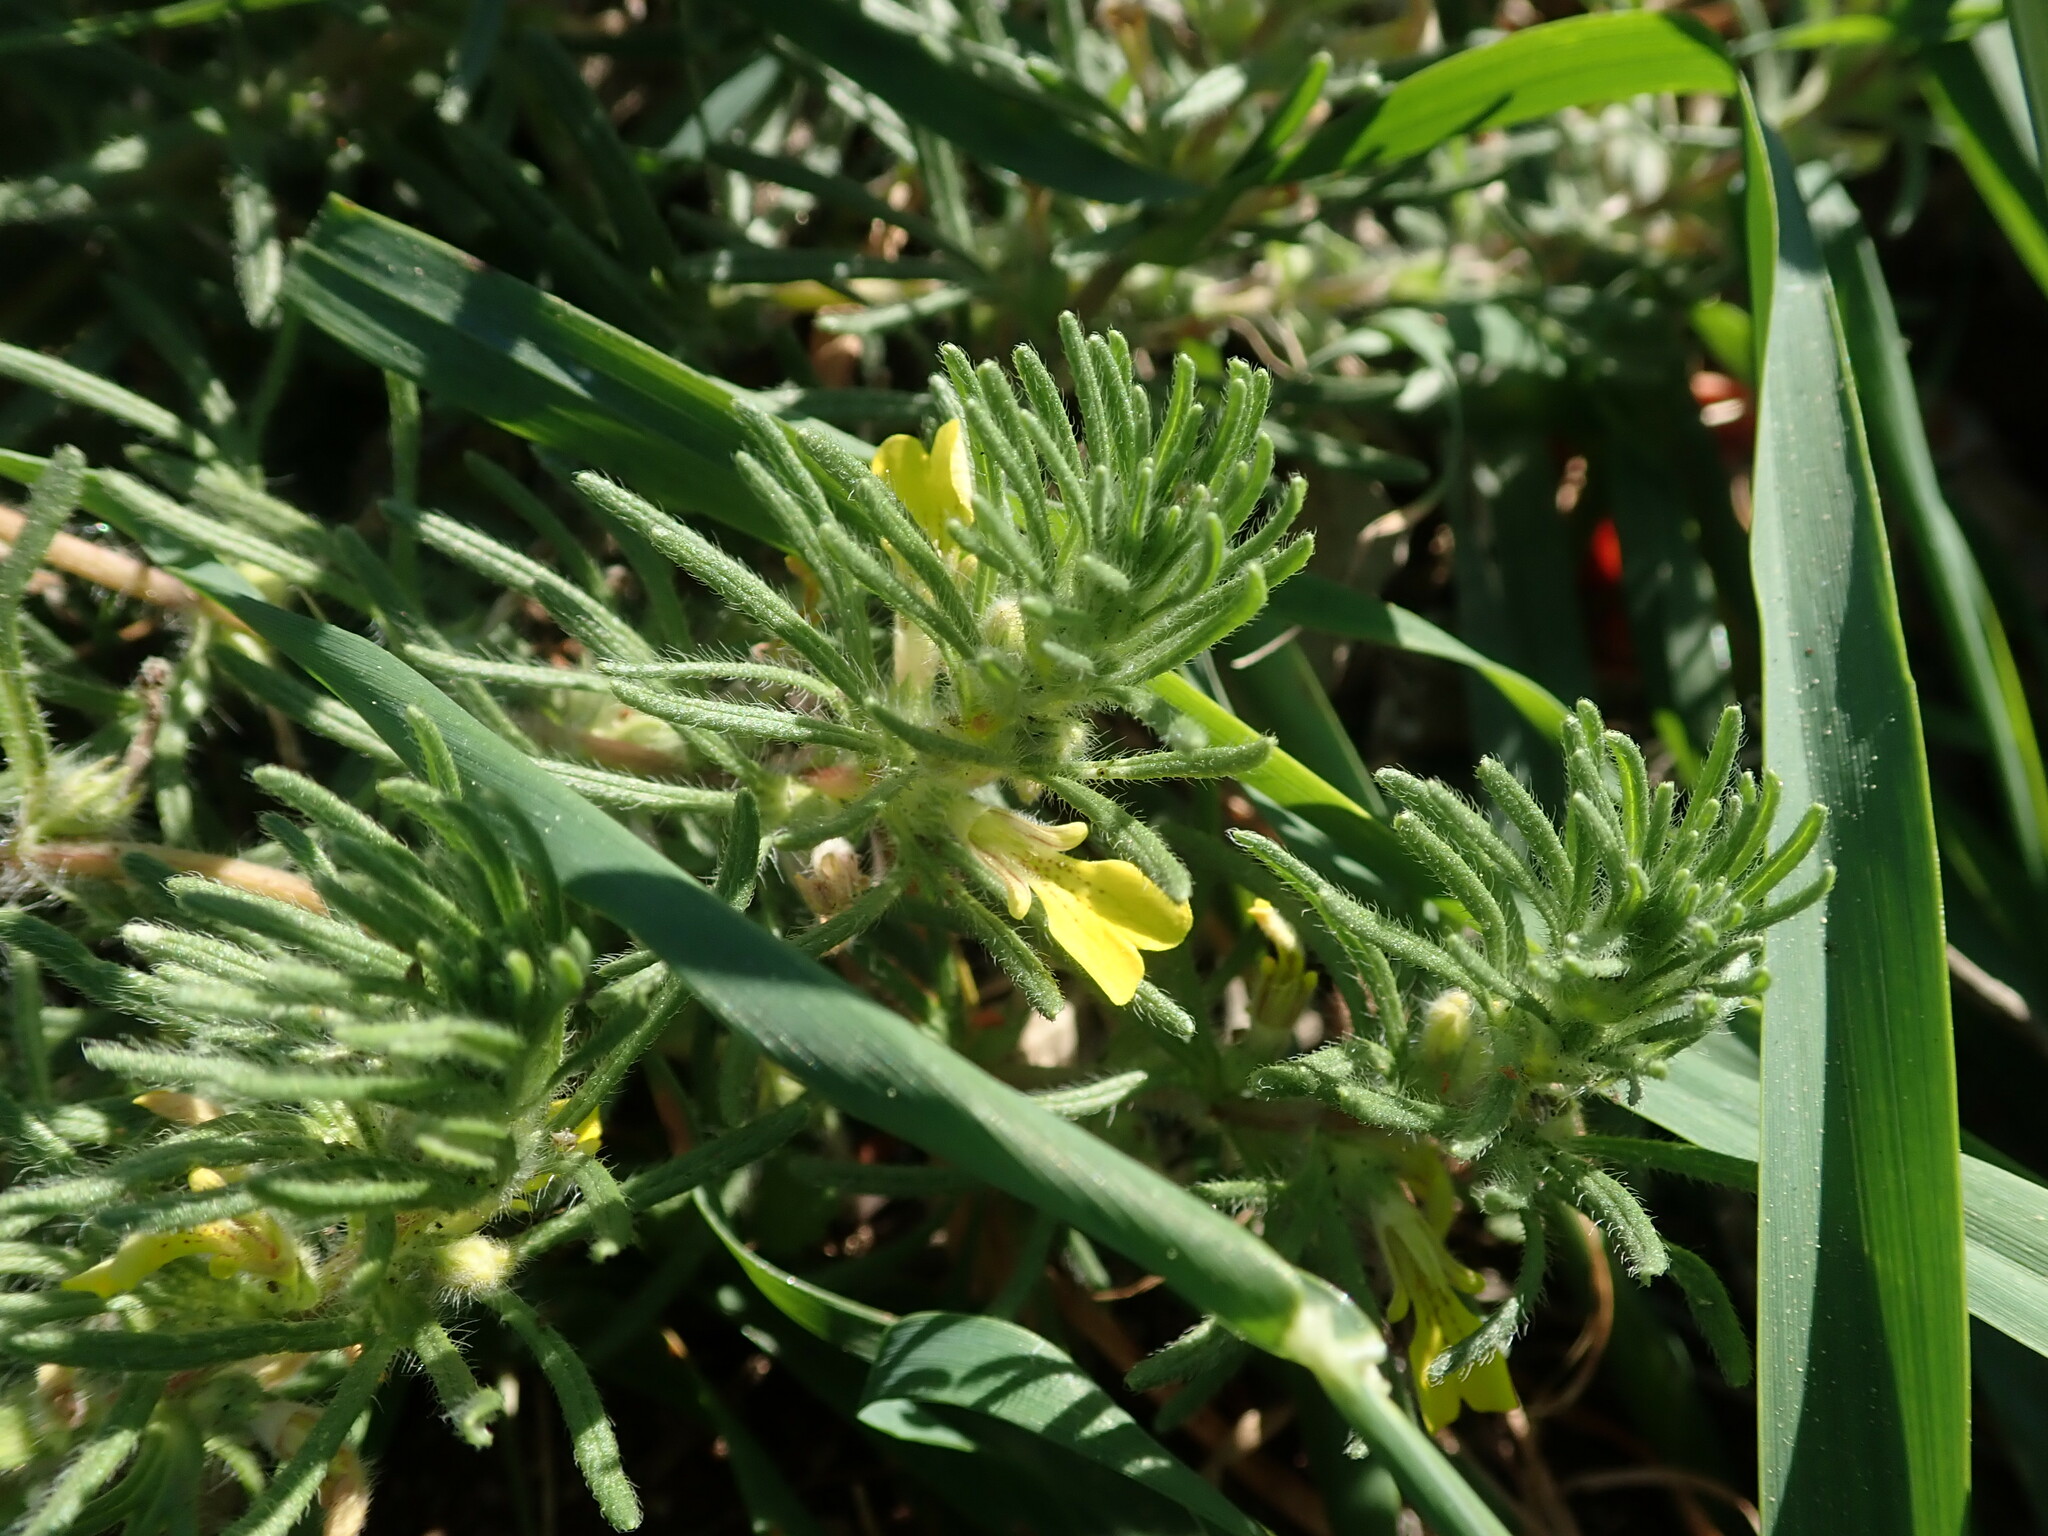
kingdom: Plantae
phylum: Tracheophyta
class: Magnoliopsida
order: Lamiales
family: Lamiaceae
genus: Ajuga
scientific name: Ajuga chamaepitys
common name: Ground-pine
